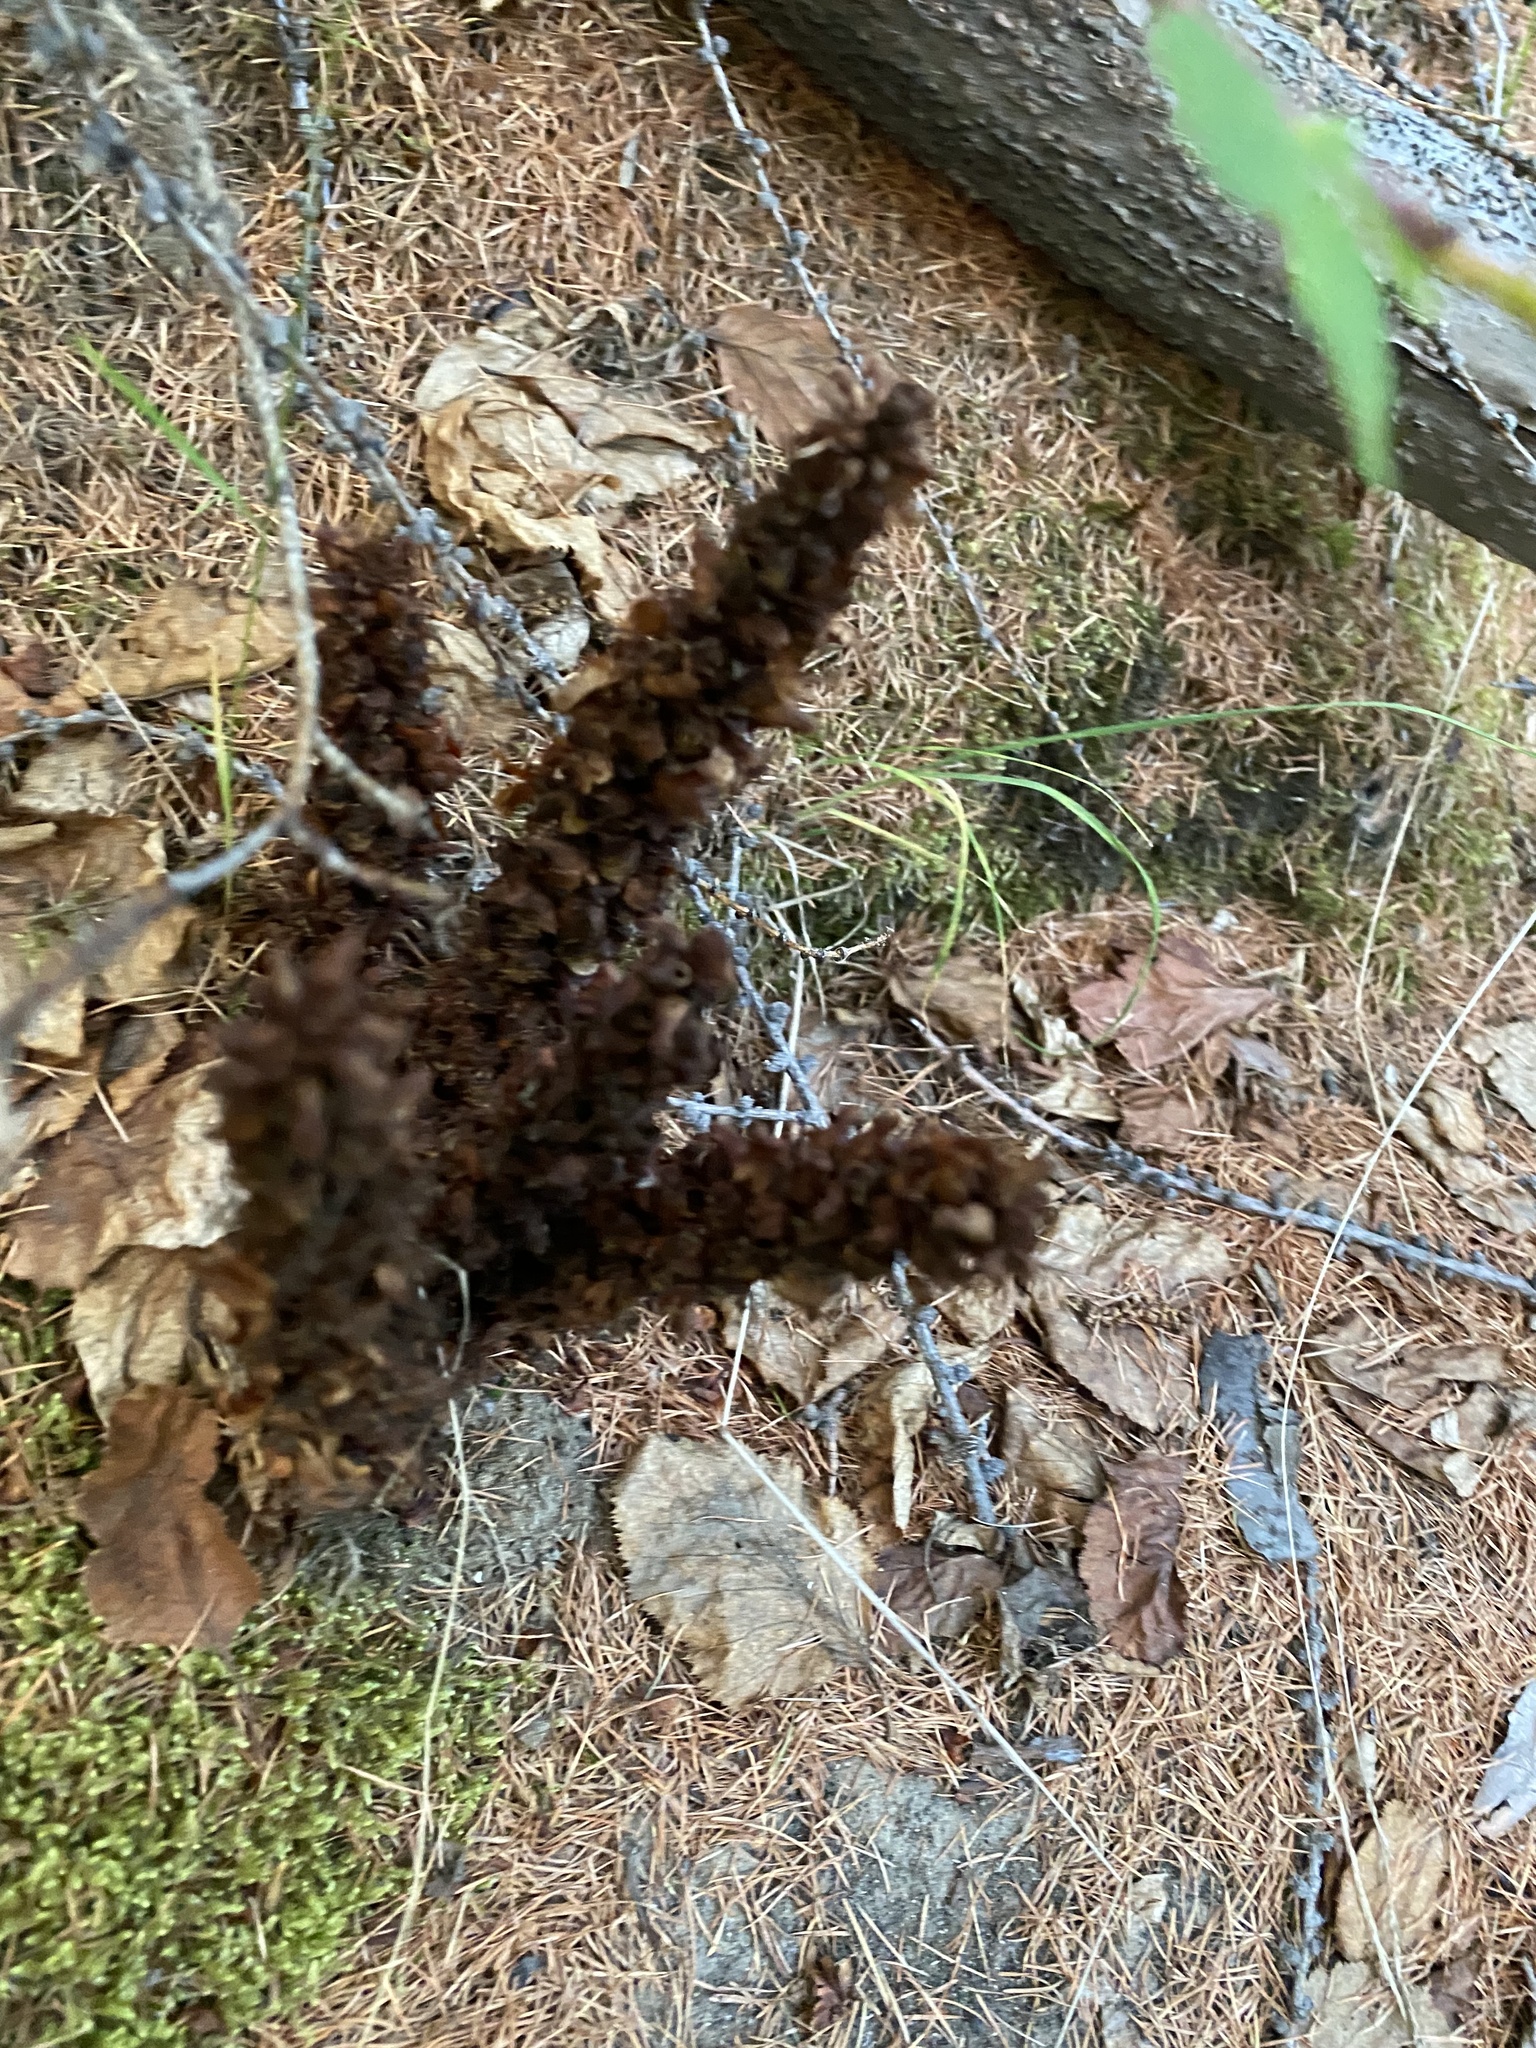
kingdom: Plantae
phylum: Tracheophyta
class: Magnoliopsida
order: Lamiales
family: Orobanchaceae
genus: Boschniakia
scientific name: Boschniakia rossica
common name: Poque
